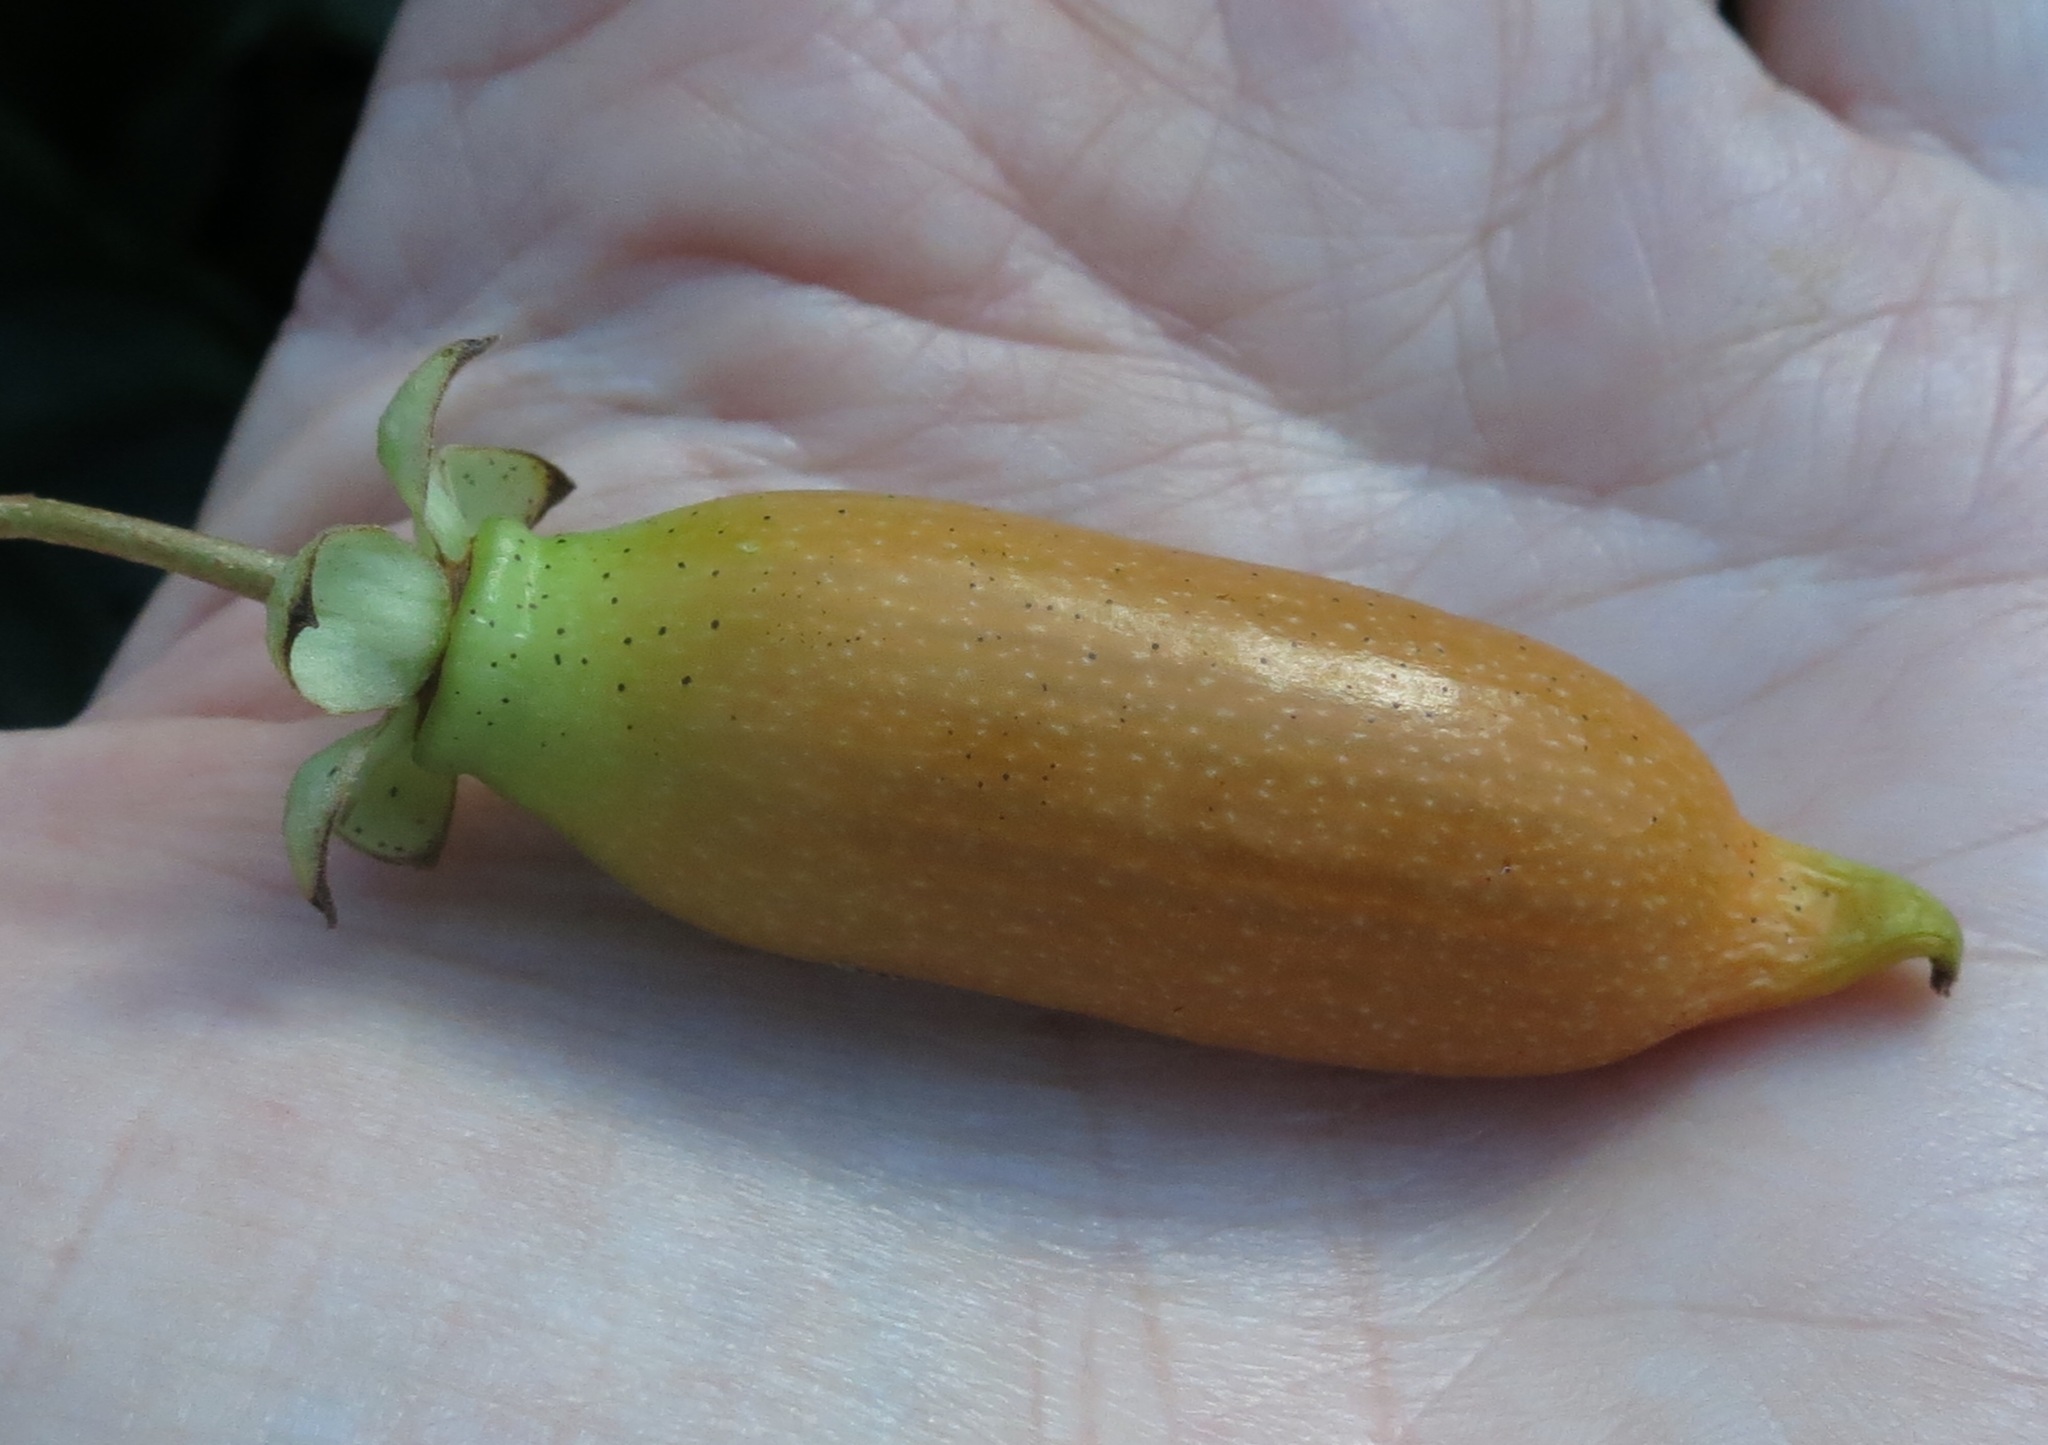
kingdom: Plantae
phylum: Tracheophyta
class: Magnoliopsida
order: Ericales
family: Actinidiaceae
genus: Actinidia
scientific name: Actinidia polygama
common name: Silver vine
